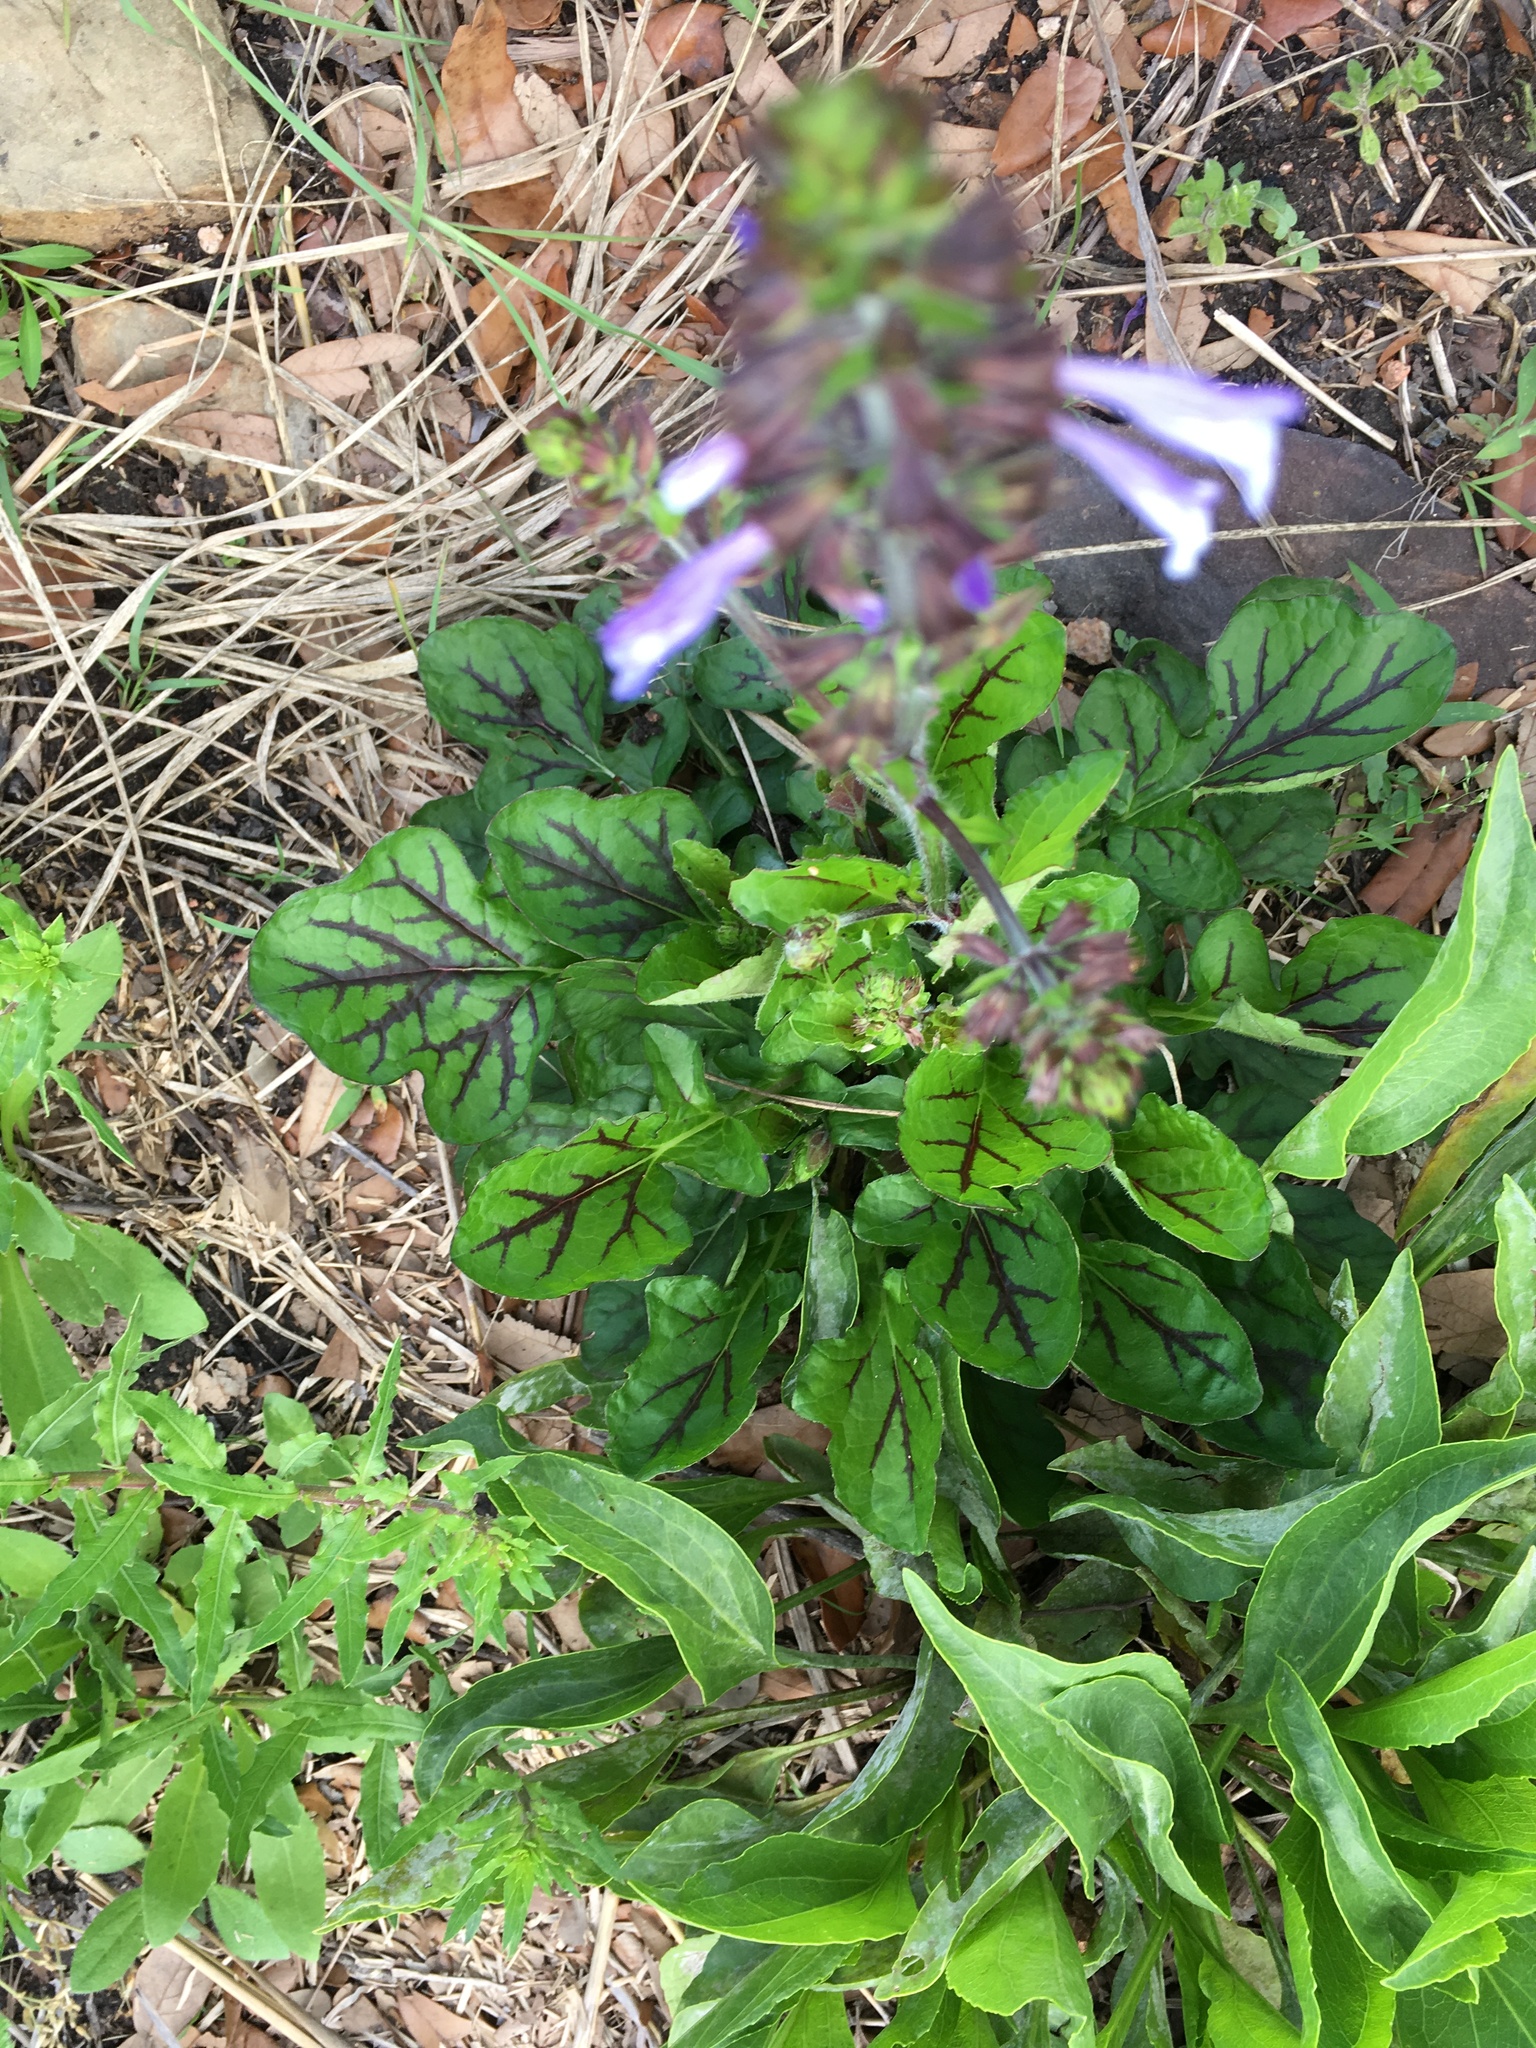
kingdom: Plantae
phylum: Tracheophyta
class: Magnoliopsida
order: Lamiales
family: Lamiaceae
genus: Salvia
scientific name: Salvia lyrata
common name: Cancerweed
